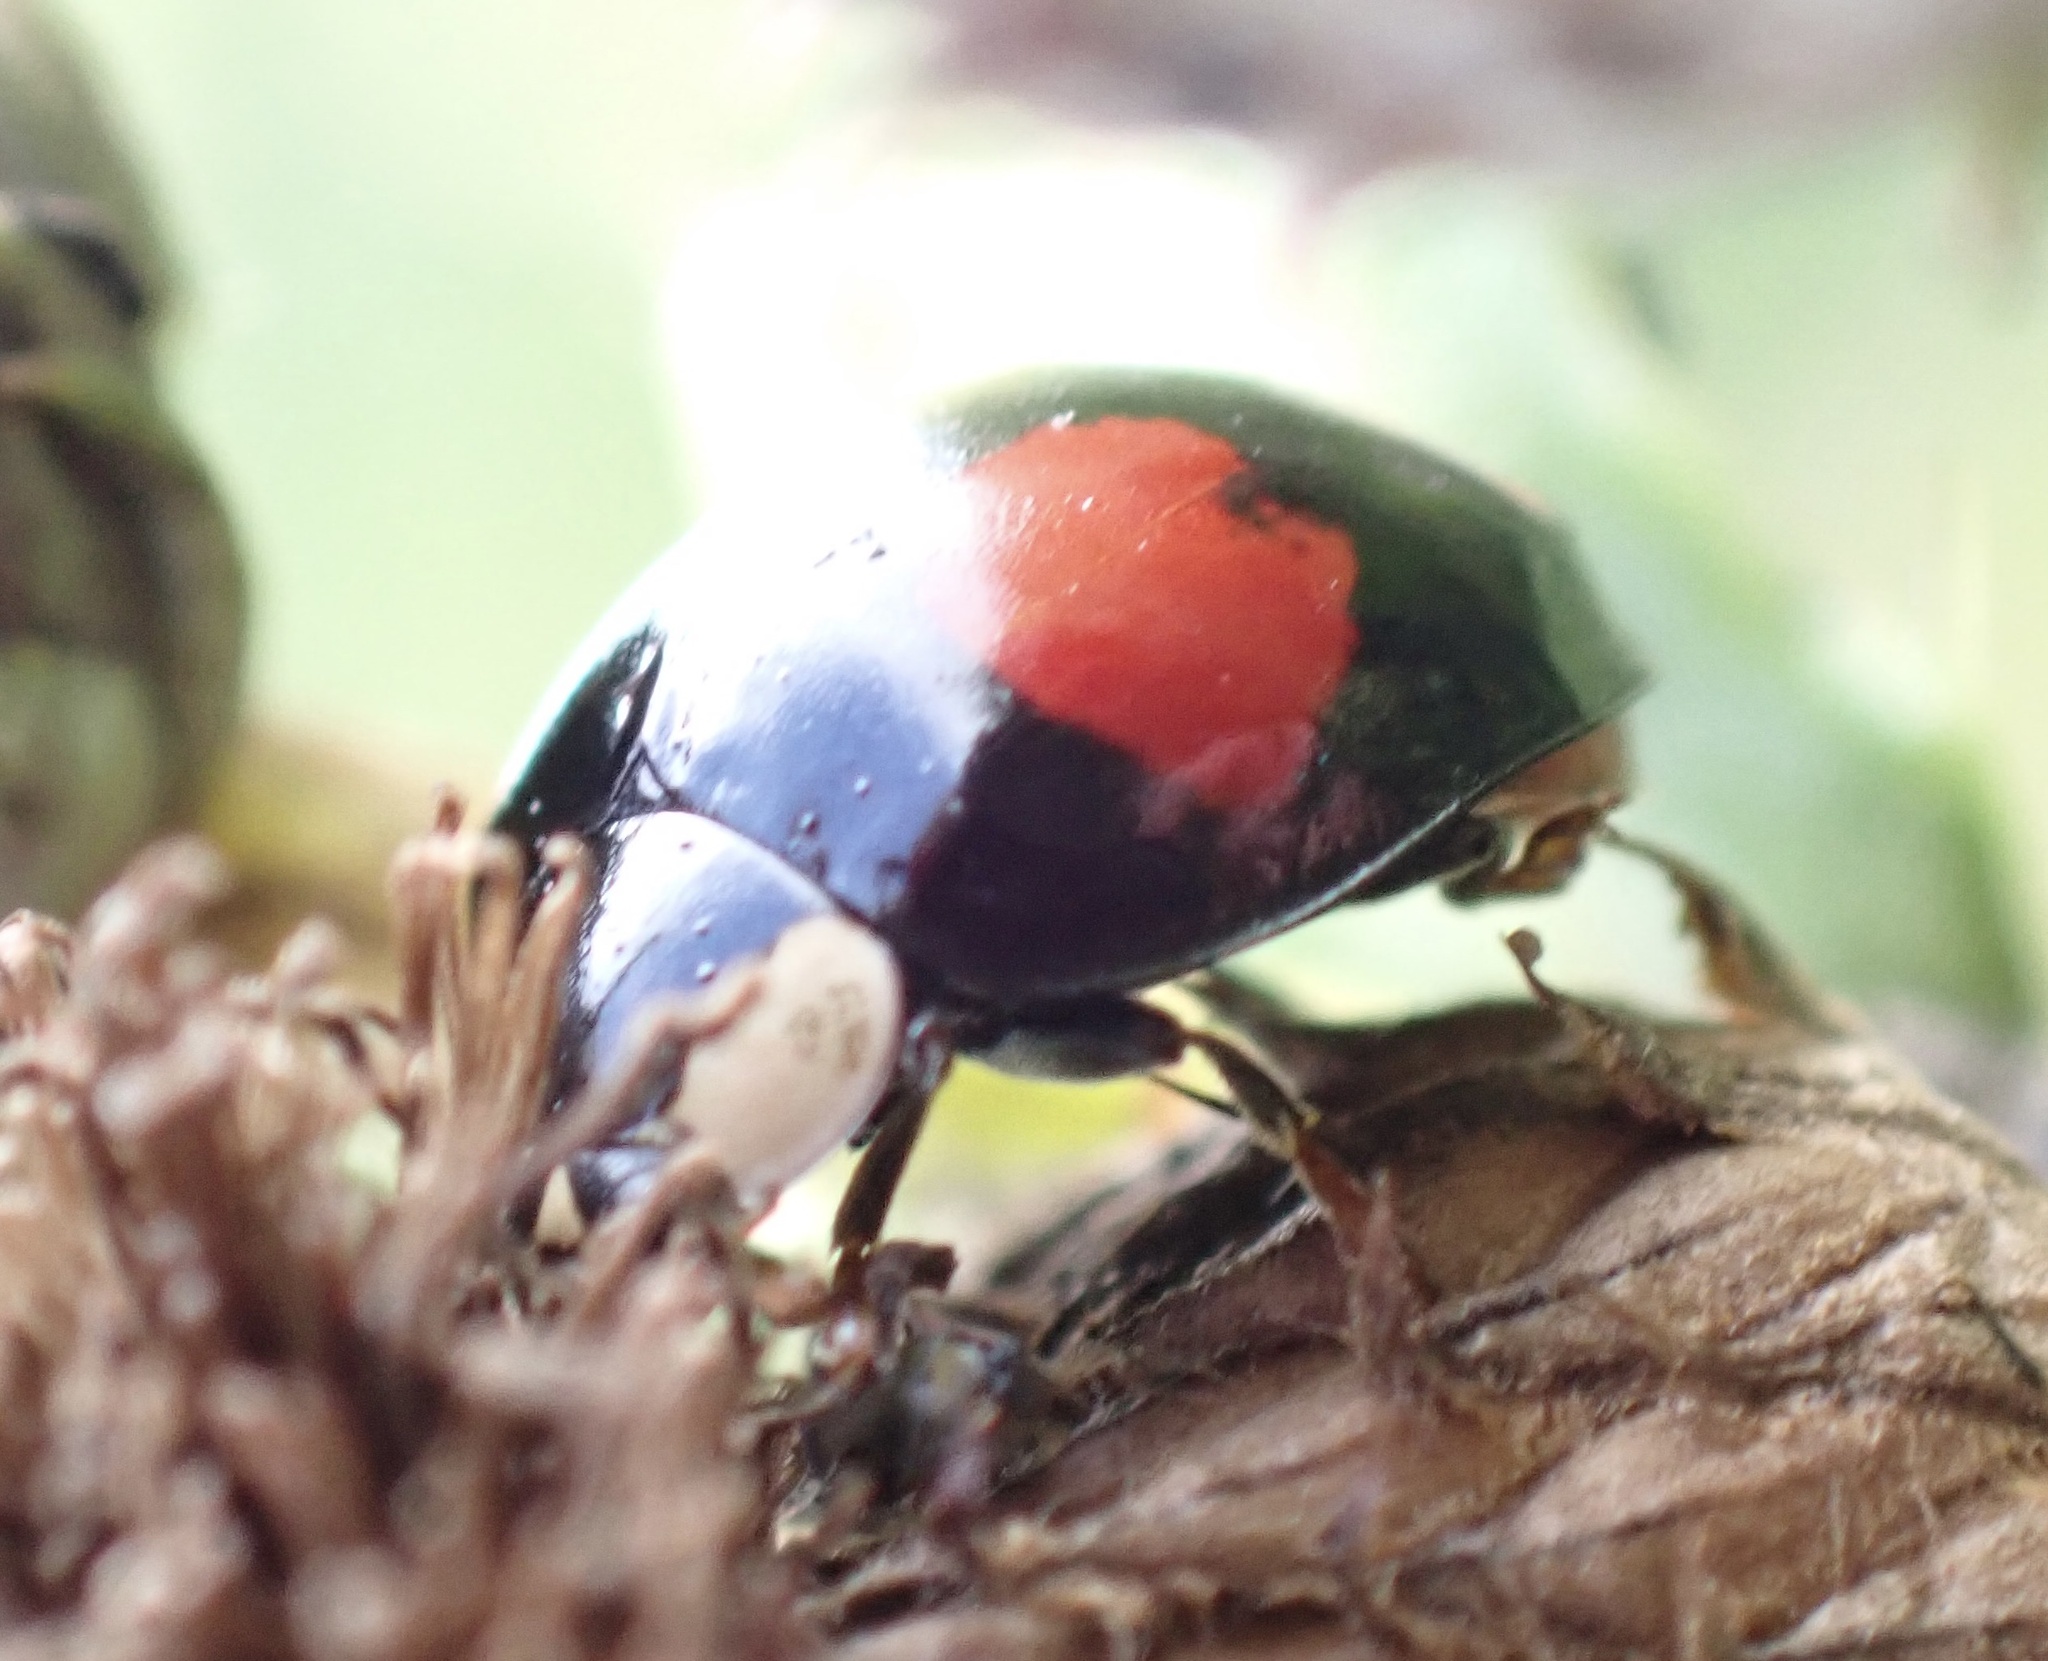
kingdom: Animalia
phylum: Arthropoda
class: Insecta
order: Coleoptera
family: Coccinellidae
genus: Harmonia
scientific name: Harmonia axyridis
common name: Harlequin ladybird
